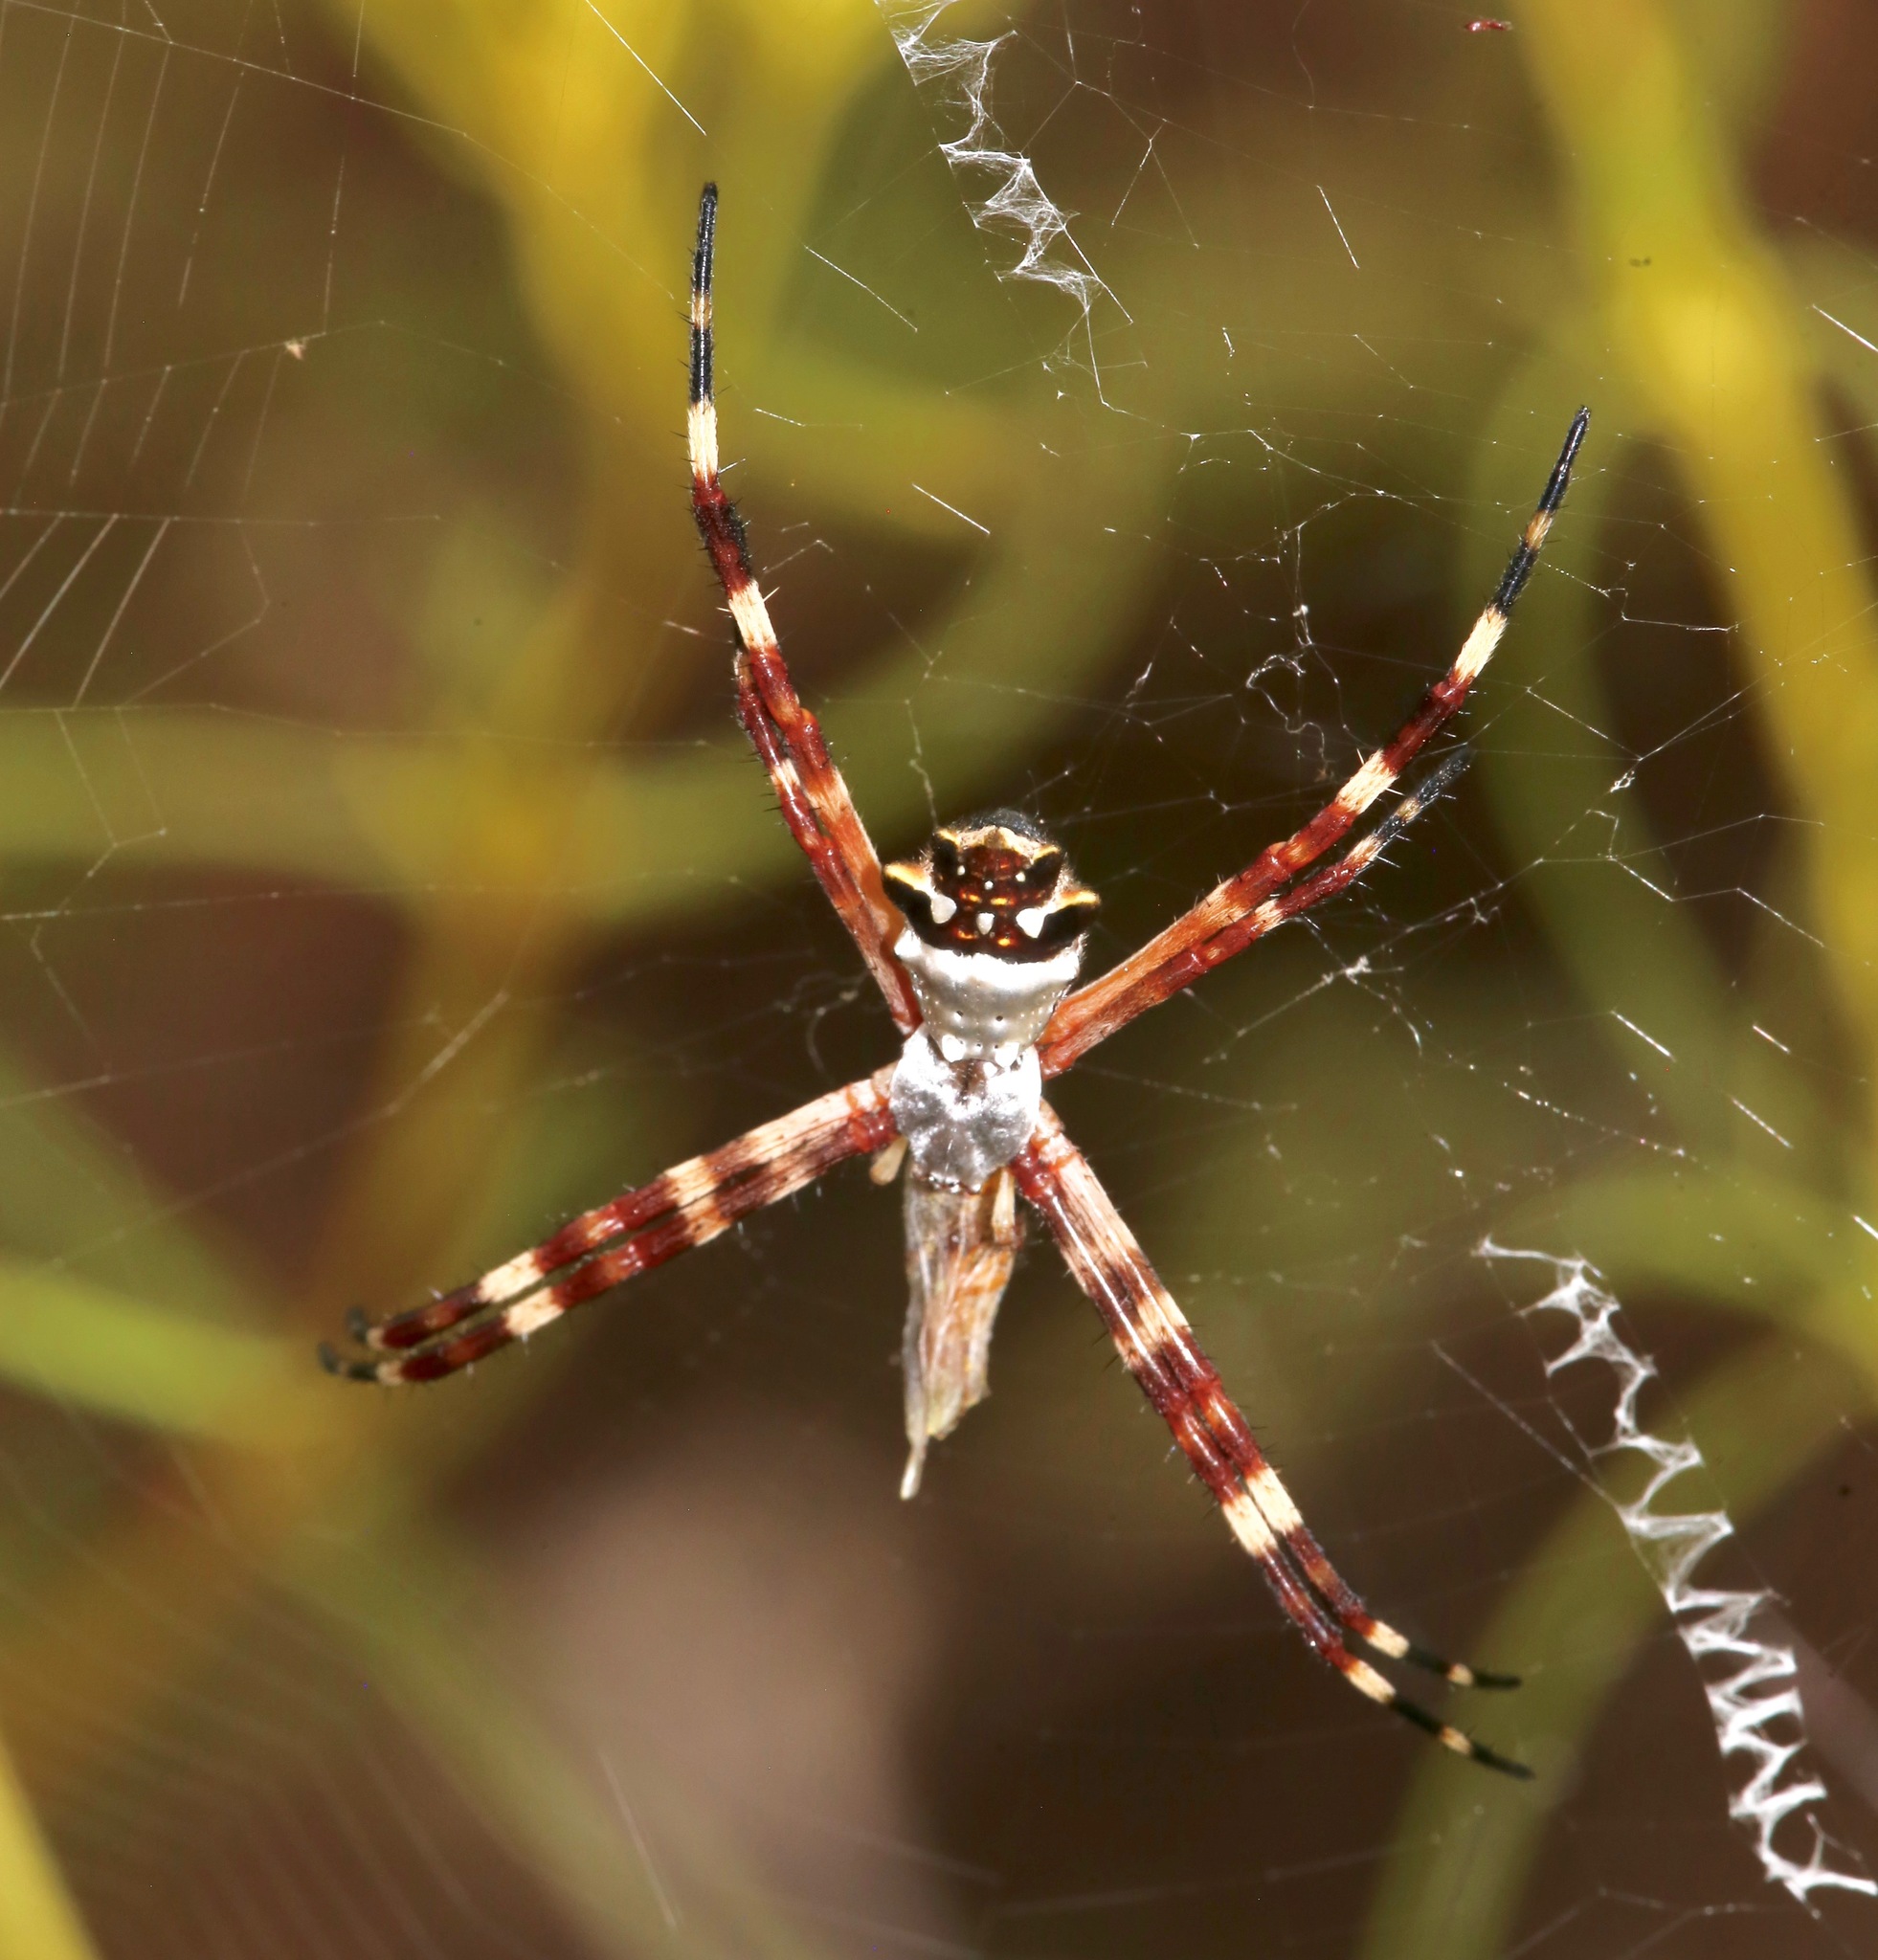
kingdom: Animalia
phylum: Arthropoda
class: Arachnida
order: Araneae
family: Araneidae
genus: Argiope
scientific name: Argiope argentata
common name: Orb weavers
